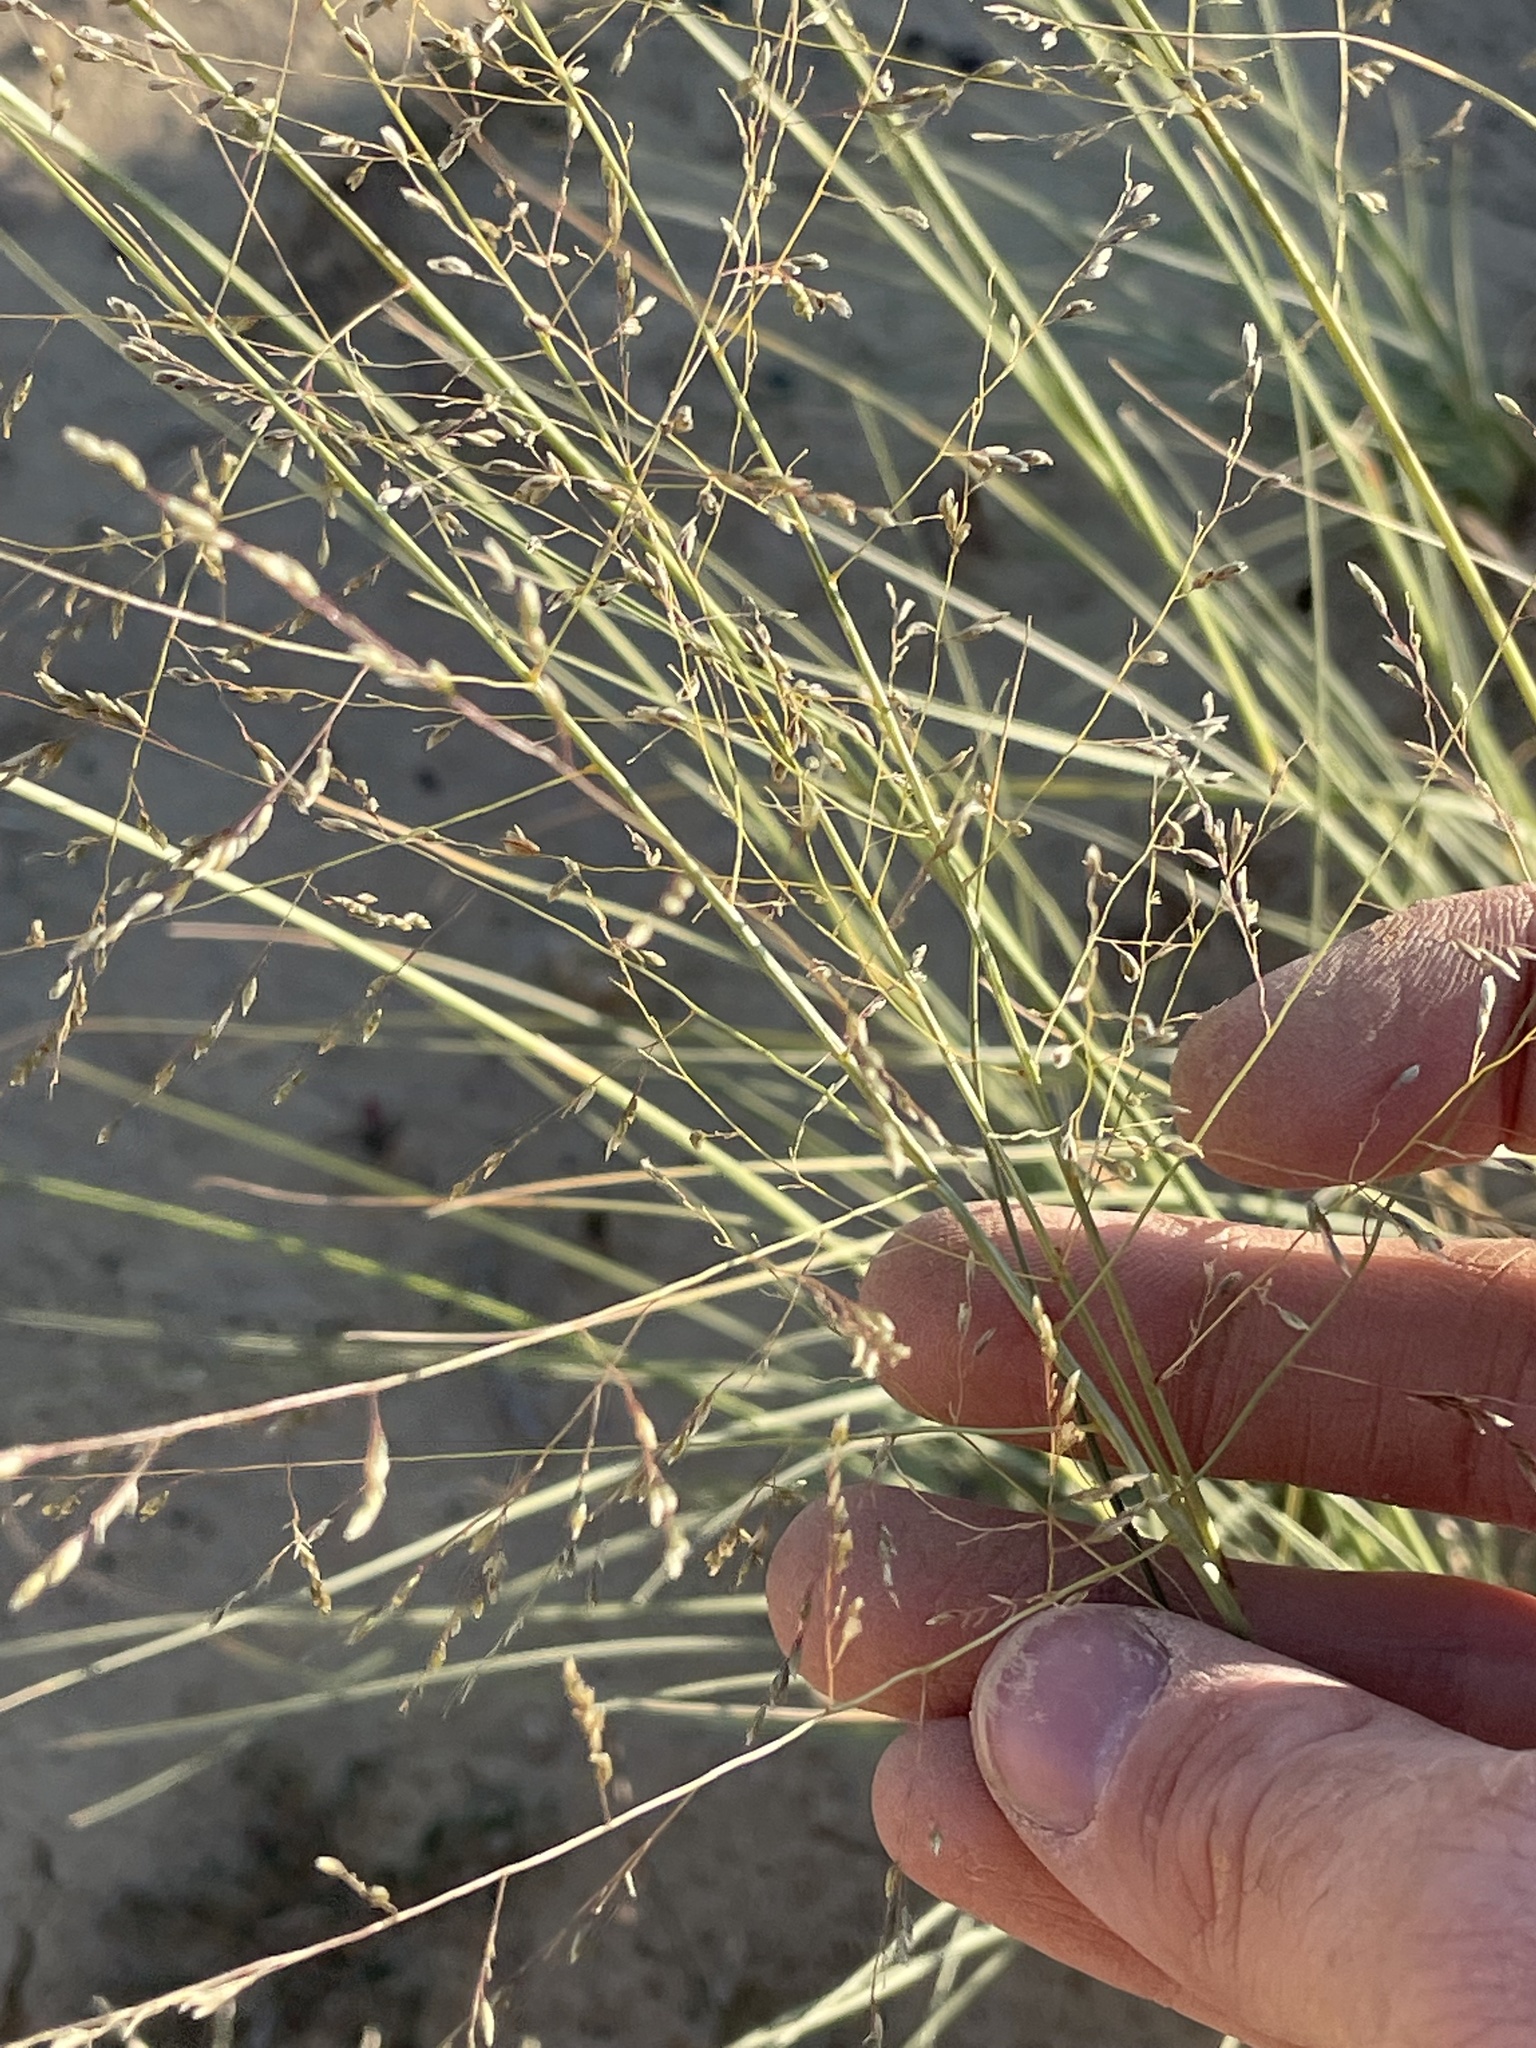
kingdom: Plantae
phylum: Tracheophyta
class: Liliopsida
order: Poales
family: Poaceae
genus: Sporobolus
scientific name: Sporobolus airoides
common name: Alkali sacaton
